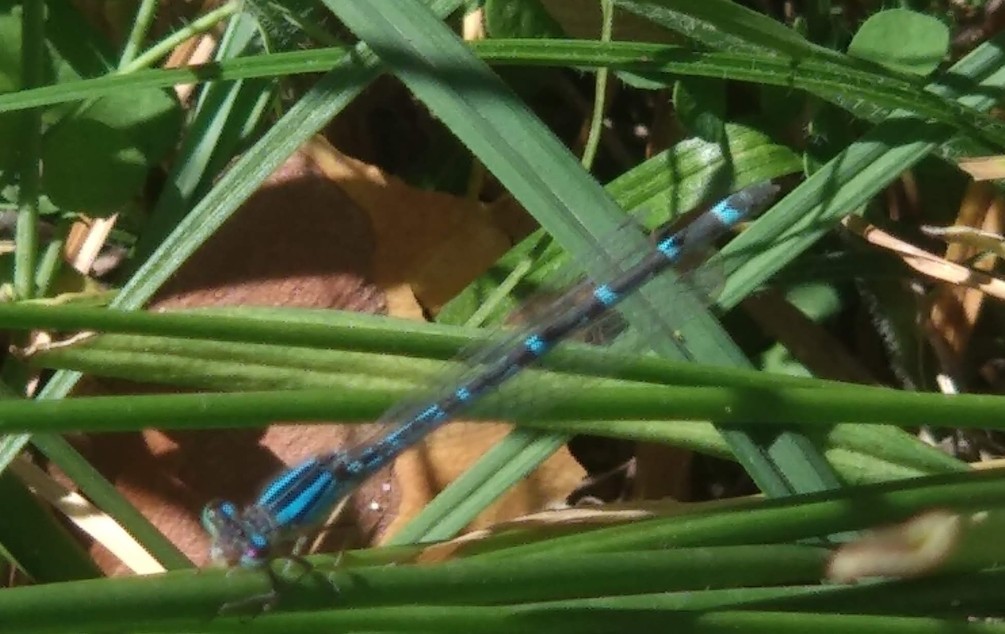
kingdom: Animalia
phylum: Arthropoda
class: Insecta
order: Odonata
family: Coenagrionidae
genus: Enallagma
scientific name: Enallagma cyathigerum
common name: Common blue damselfly
